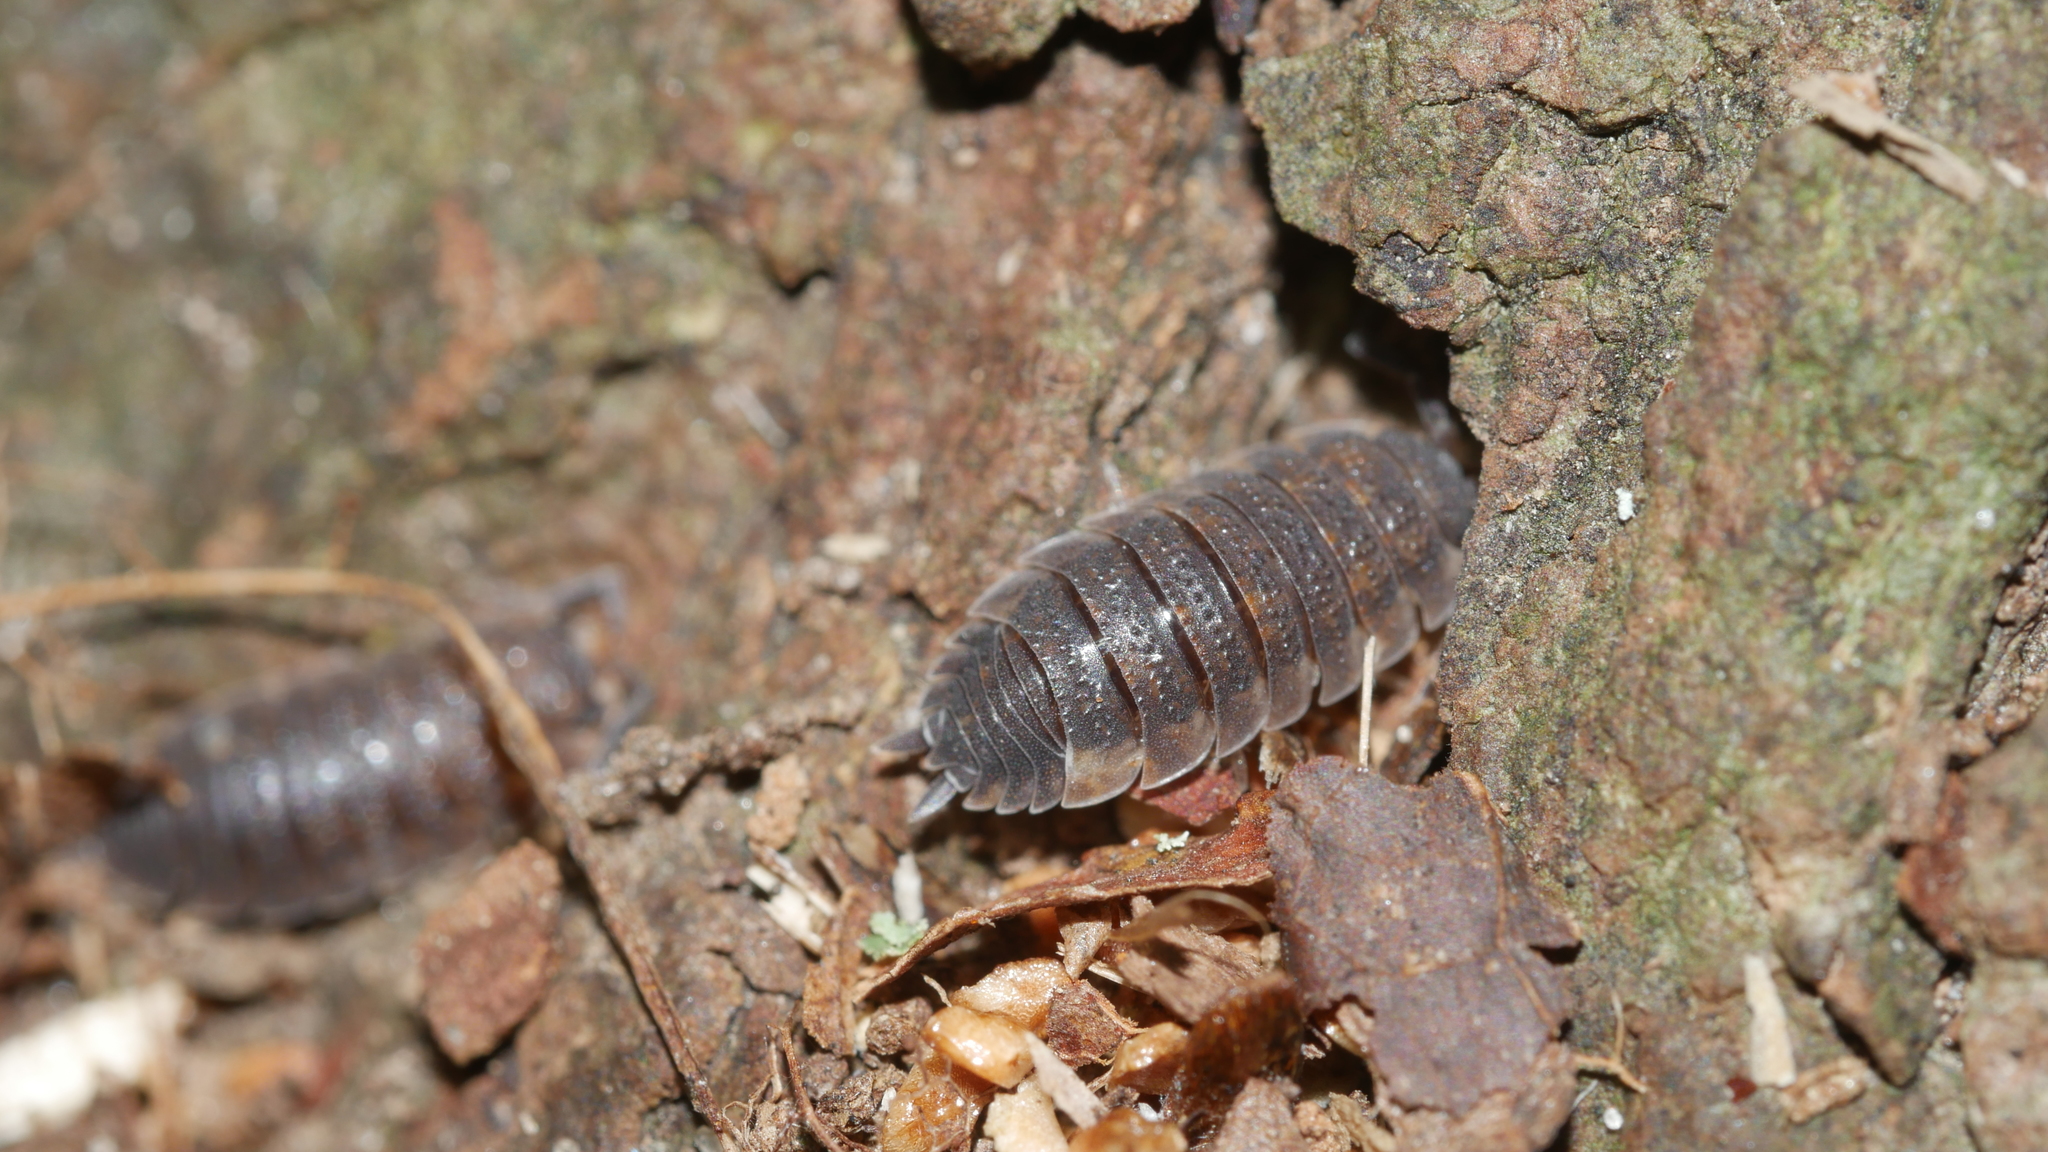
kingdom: Animalia
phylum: Arthropoda
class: Malacostraca
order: Isopoda
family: Porcellionidae
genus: Porcellio
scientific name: Porcellio scaber
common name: Common rough woodlouse
